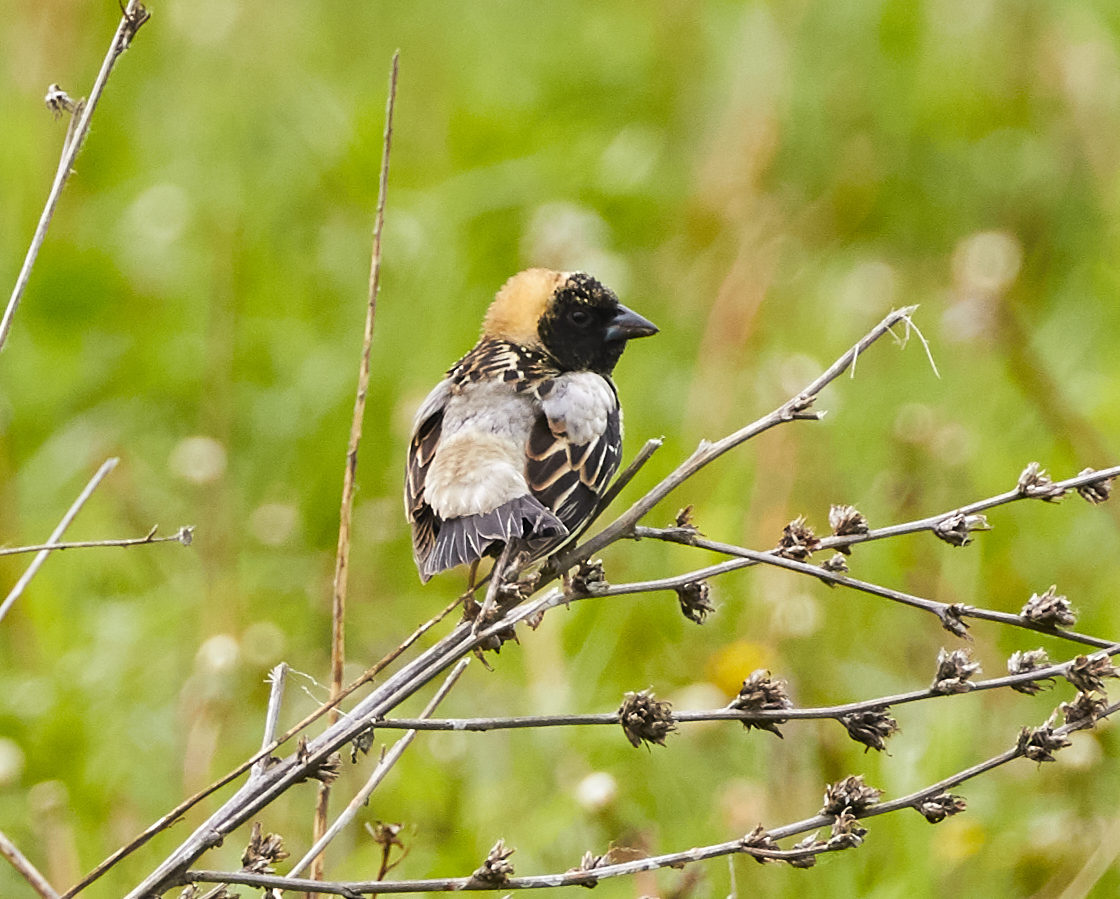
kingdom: Animalia
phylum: Chordata
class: Aves
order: Passeriformes
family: Icteridae
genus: Dolichonyx
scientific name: Dolichonyx oryzivorus
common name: Bobolink
